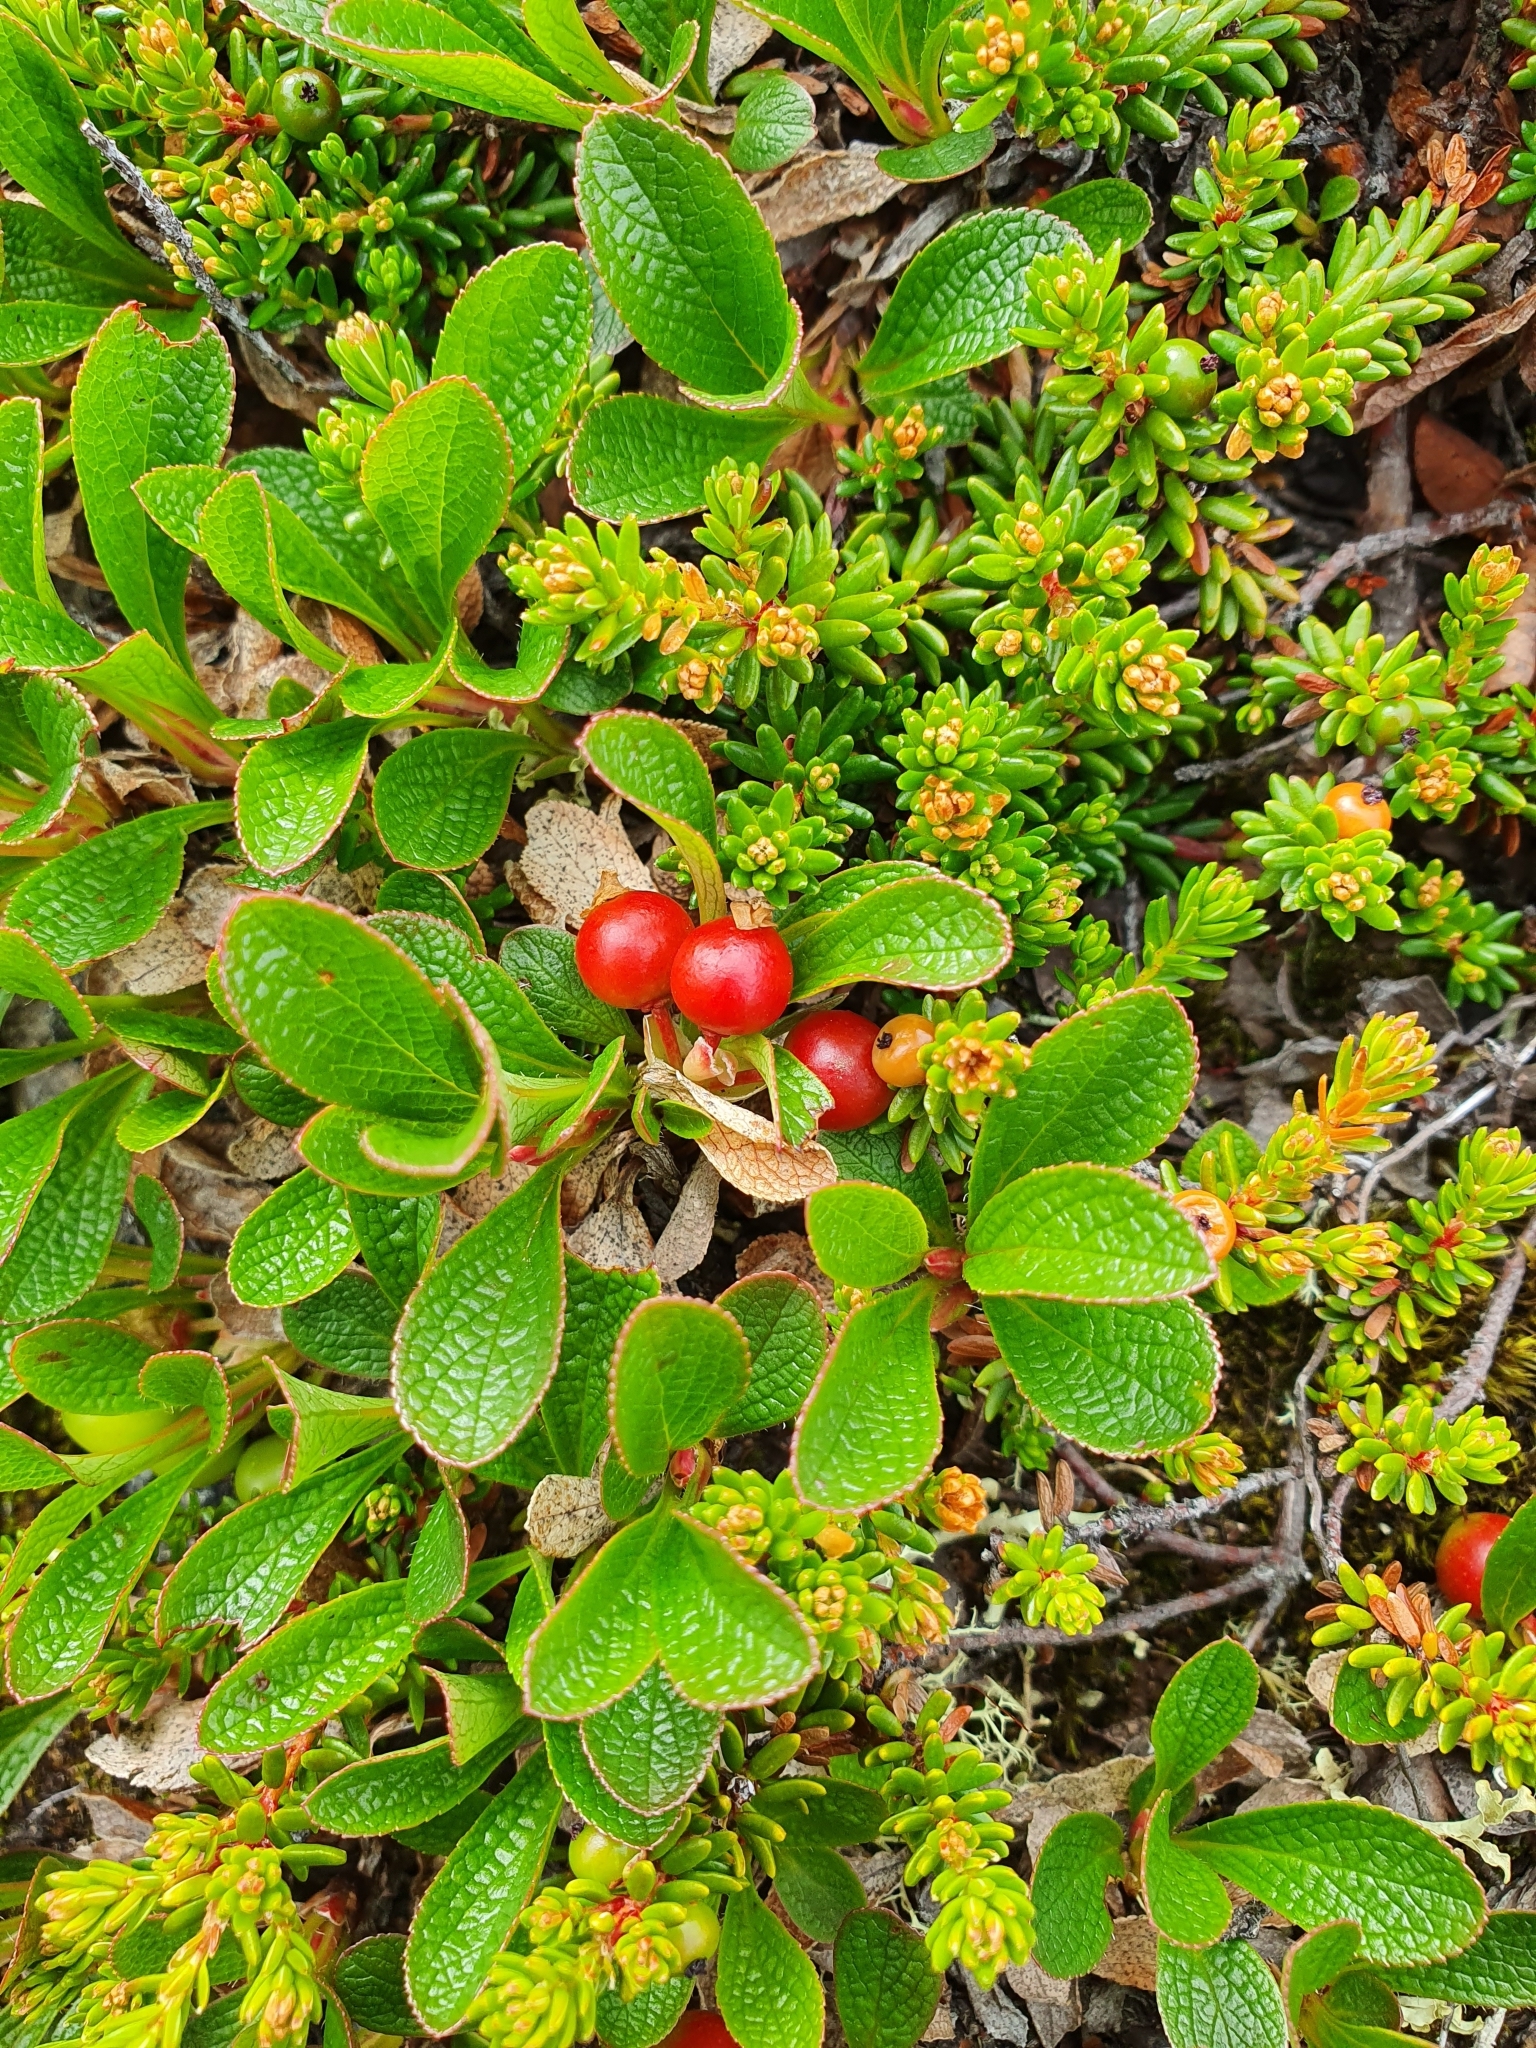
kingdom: Plantae
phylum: Tracheophyta
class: Magnoliopsida
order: Ericales
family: Ericaceae
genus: Arctostaphylos
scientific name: Arctostaphylos alpinus
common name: Alpine bearberry
